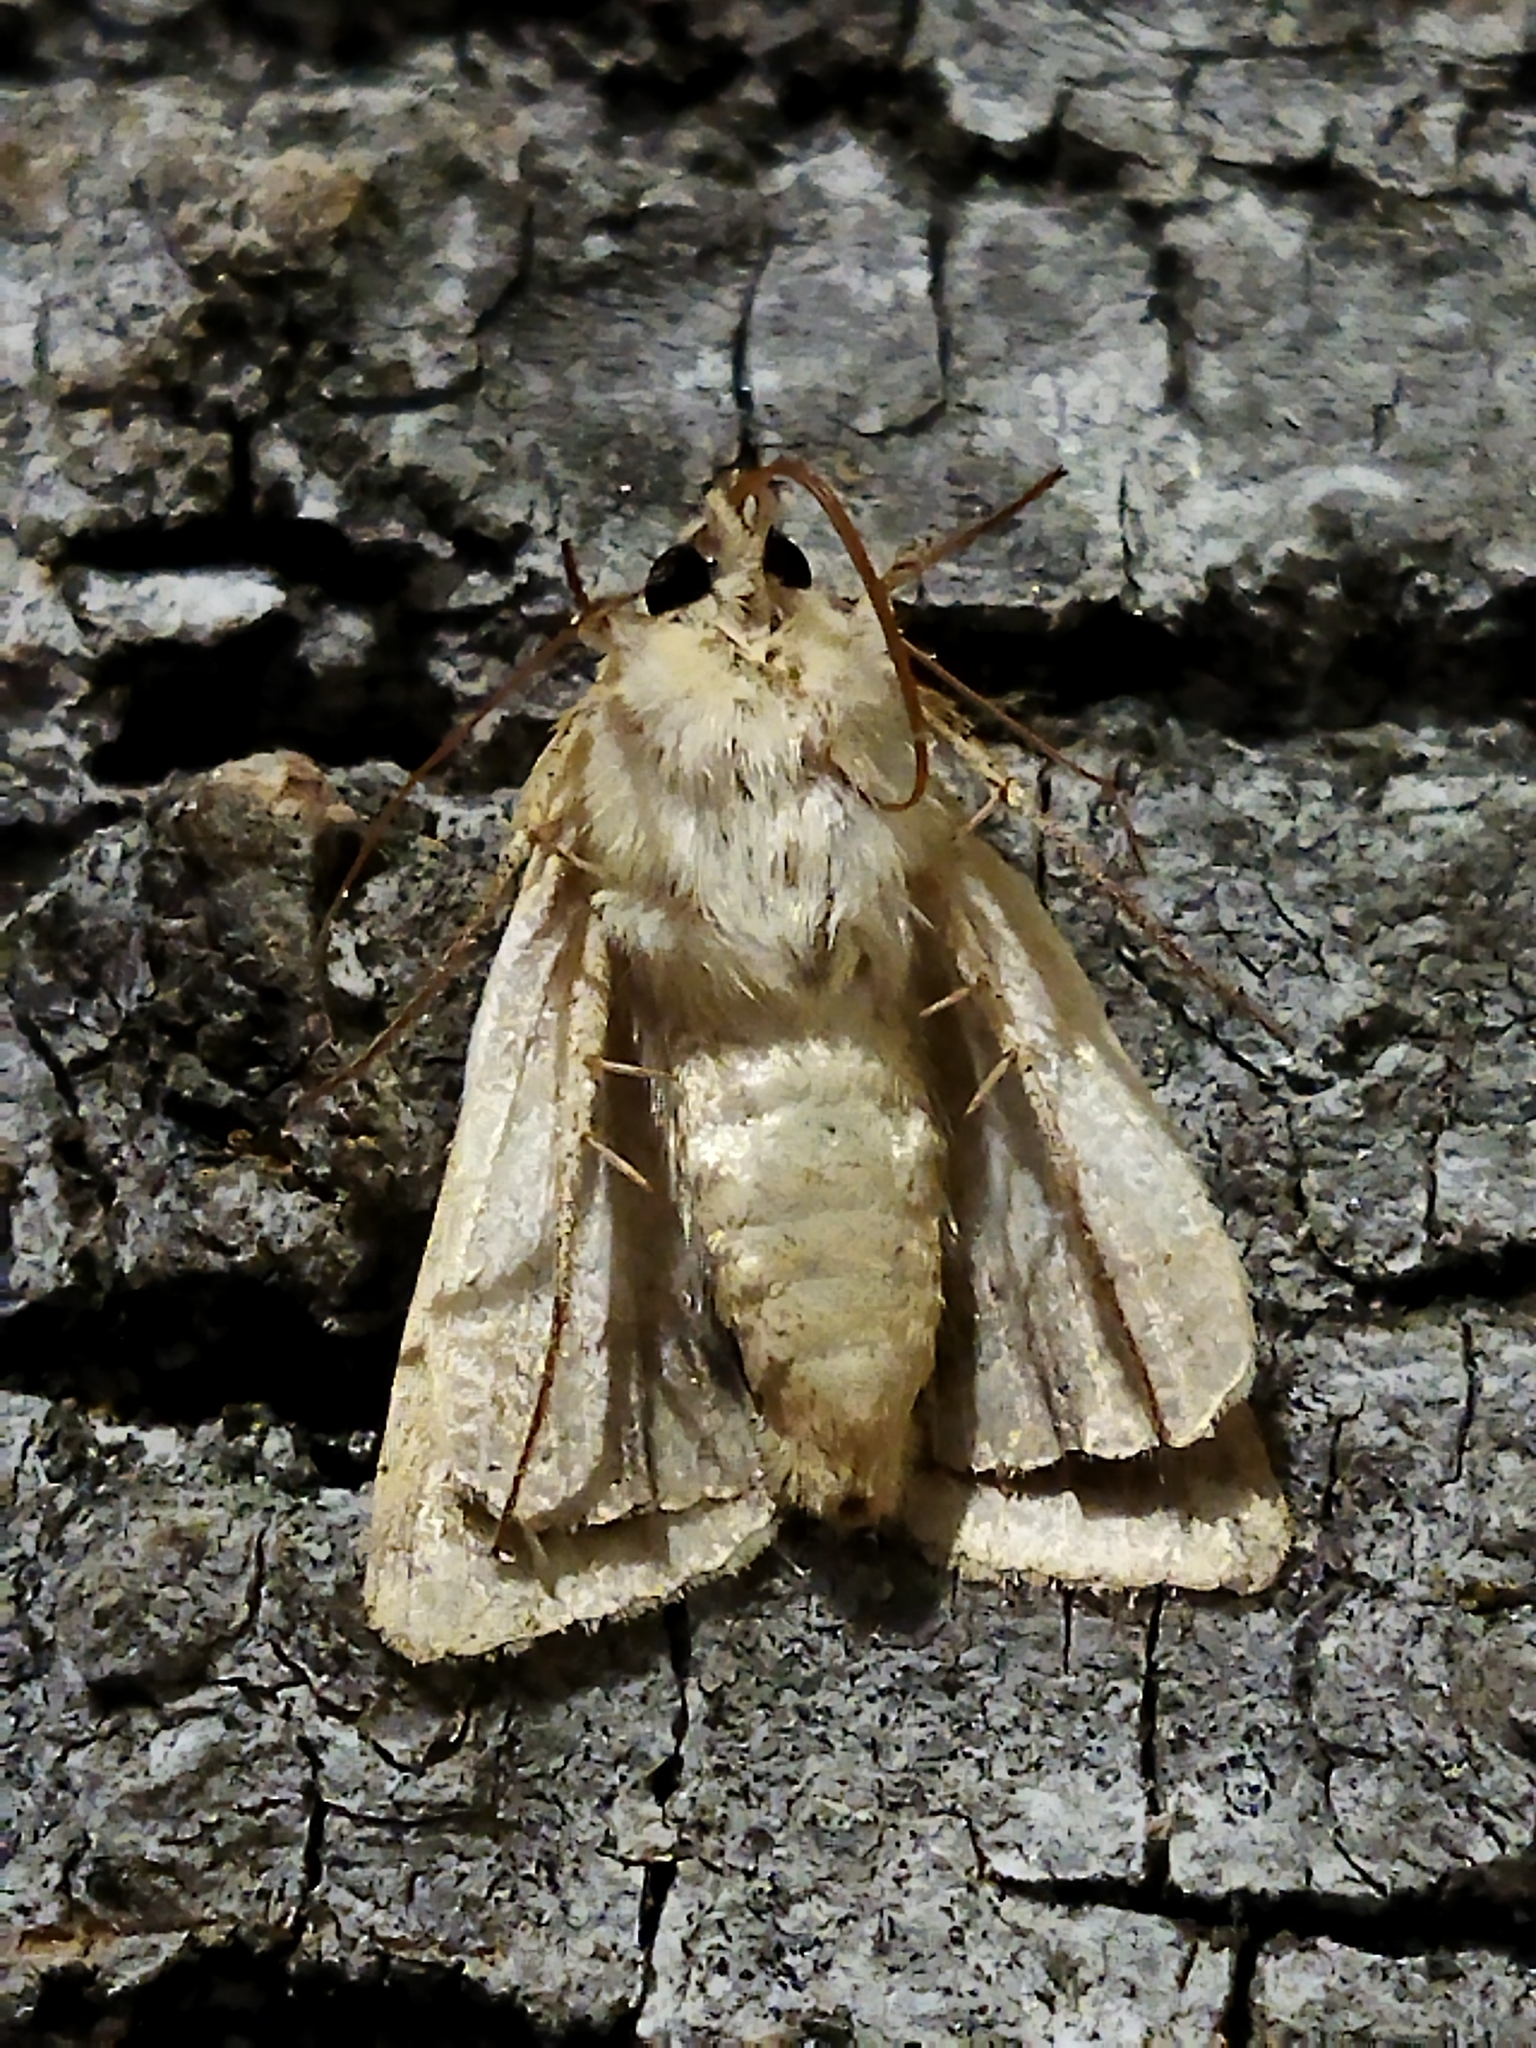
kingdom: Animalia
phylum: Arthropoda
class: Insecta
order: Lepidoptera
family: Noctuidae
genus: Heliothis
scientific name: Heliothis peltigera
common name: Bordered straw
